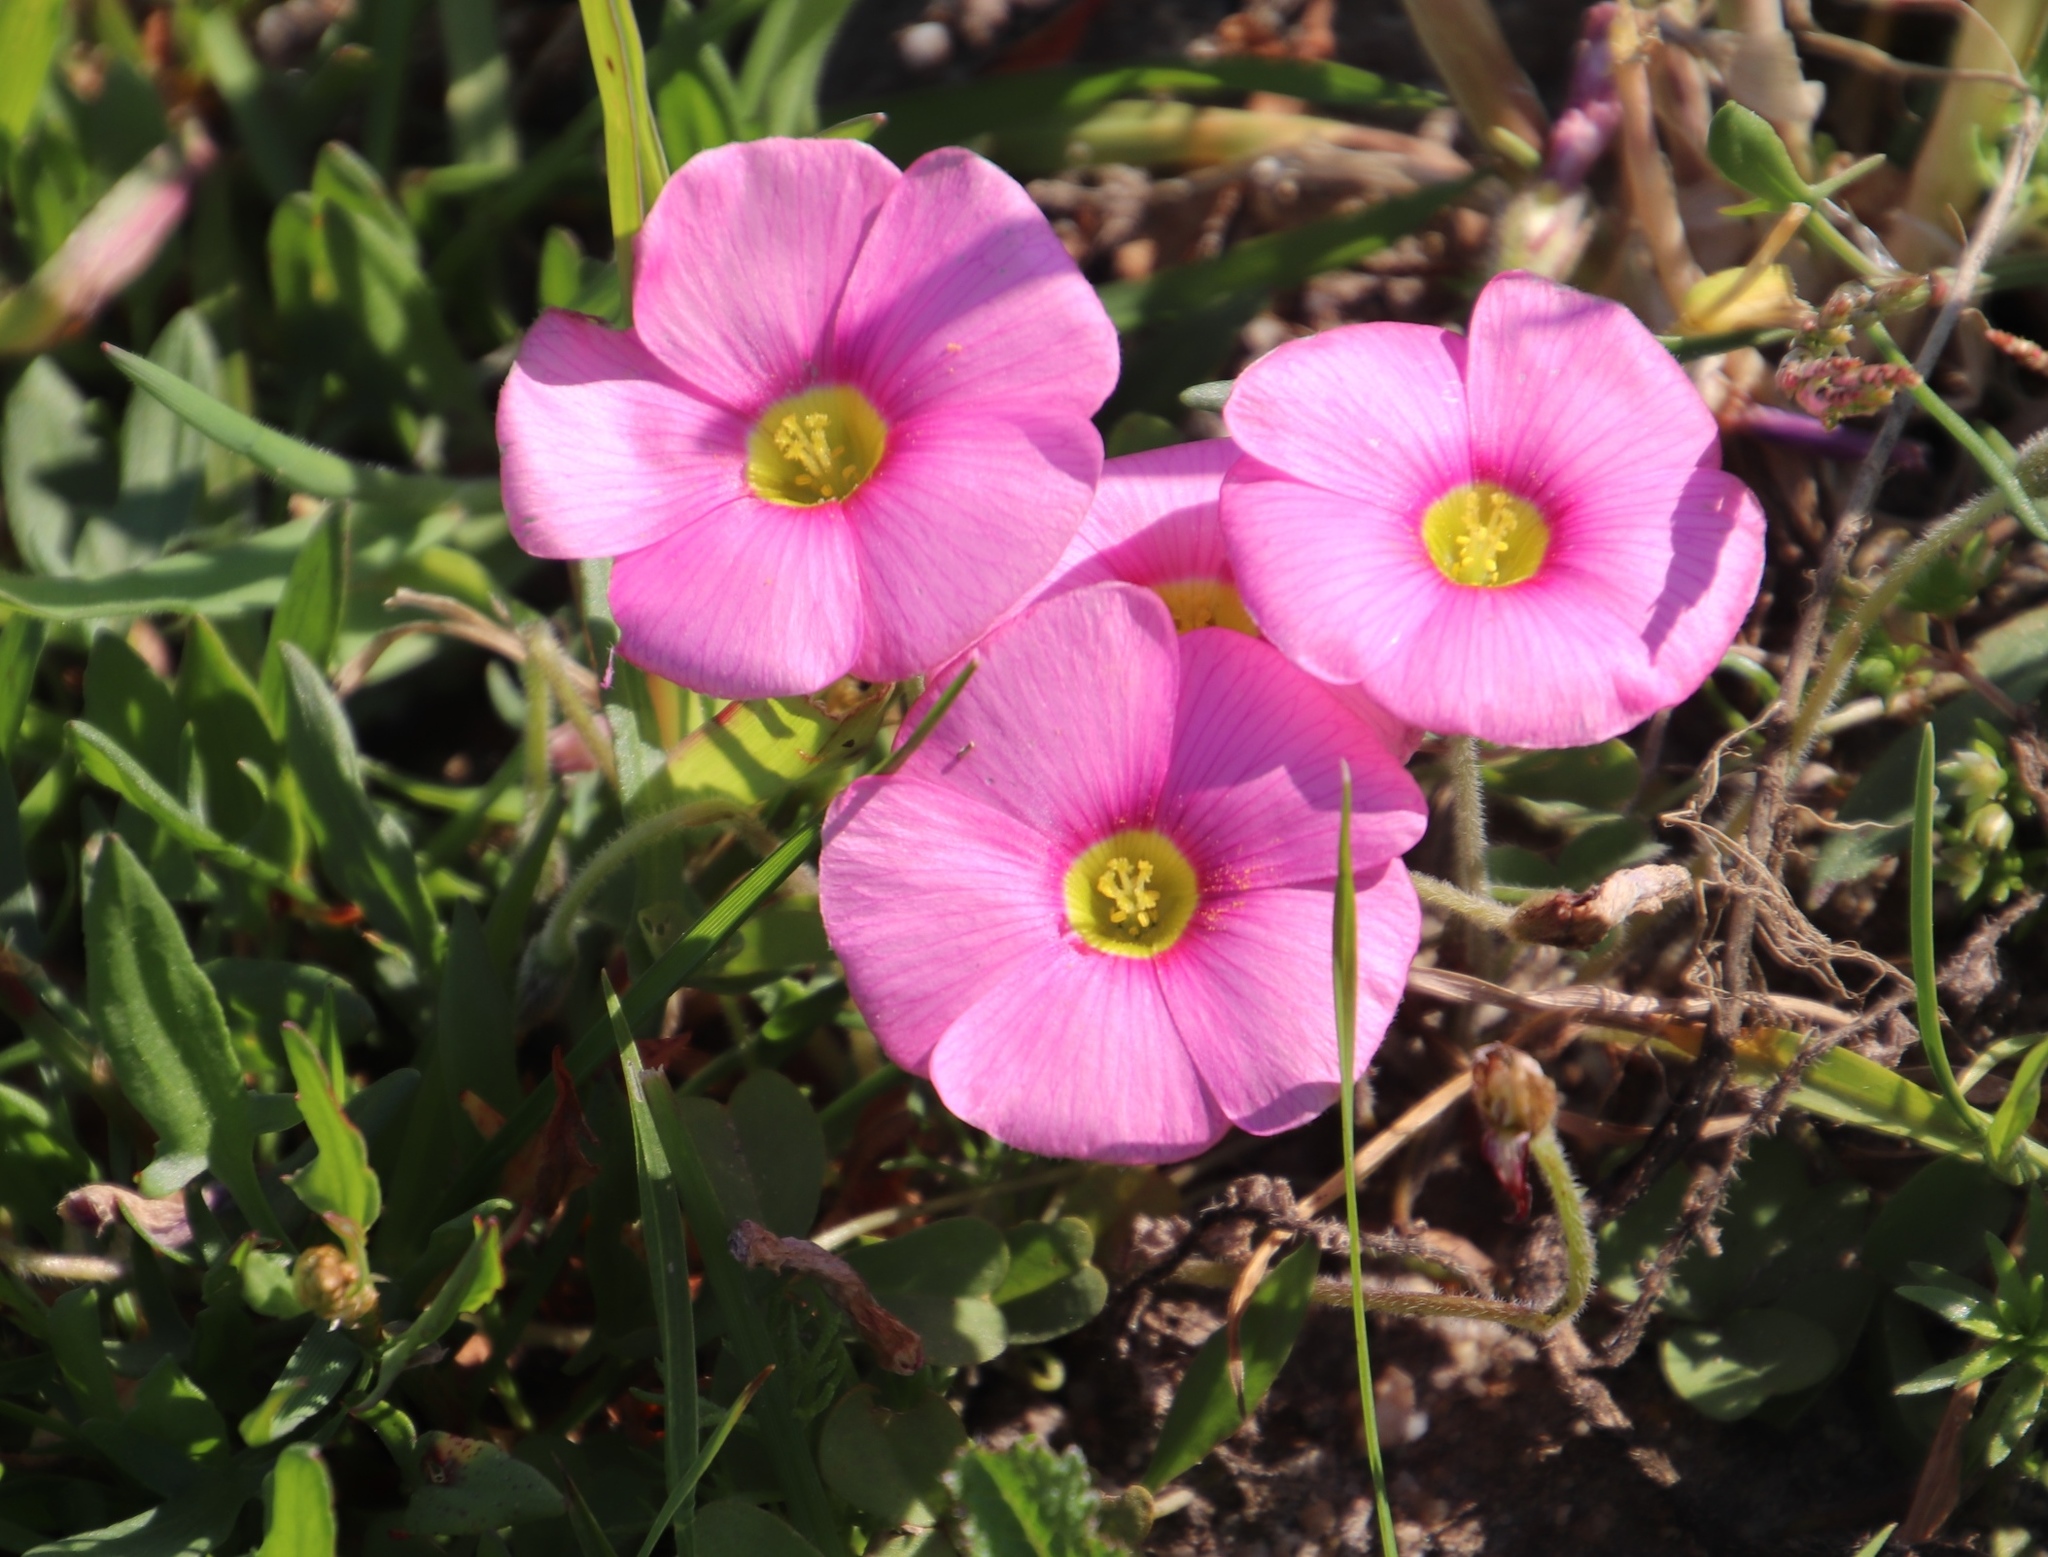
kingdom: Plantae
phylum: Tracheophyta
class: Magnoliopsida
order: Oxalidales
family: Oxalidaceae
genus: Oxalis
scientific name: Oxalis obtusa
